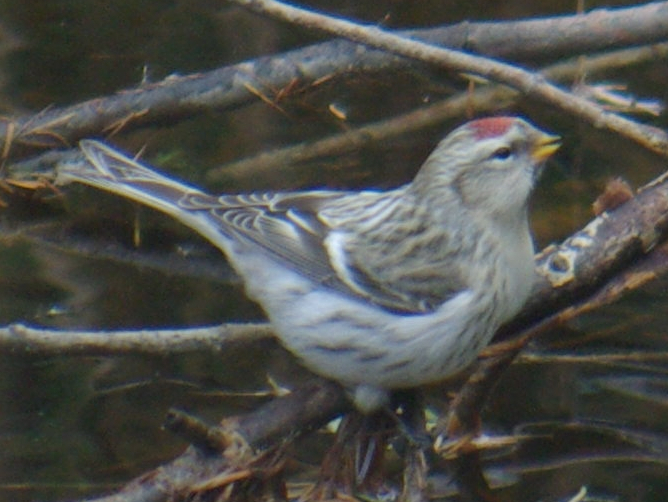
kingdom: Animalia
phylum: Chordata
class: Aves
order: Passeriformes
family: Fringillidae
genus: Acanthis
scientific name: Acanthis flammea
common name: Common redpoll
